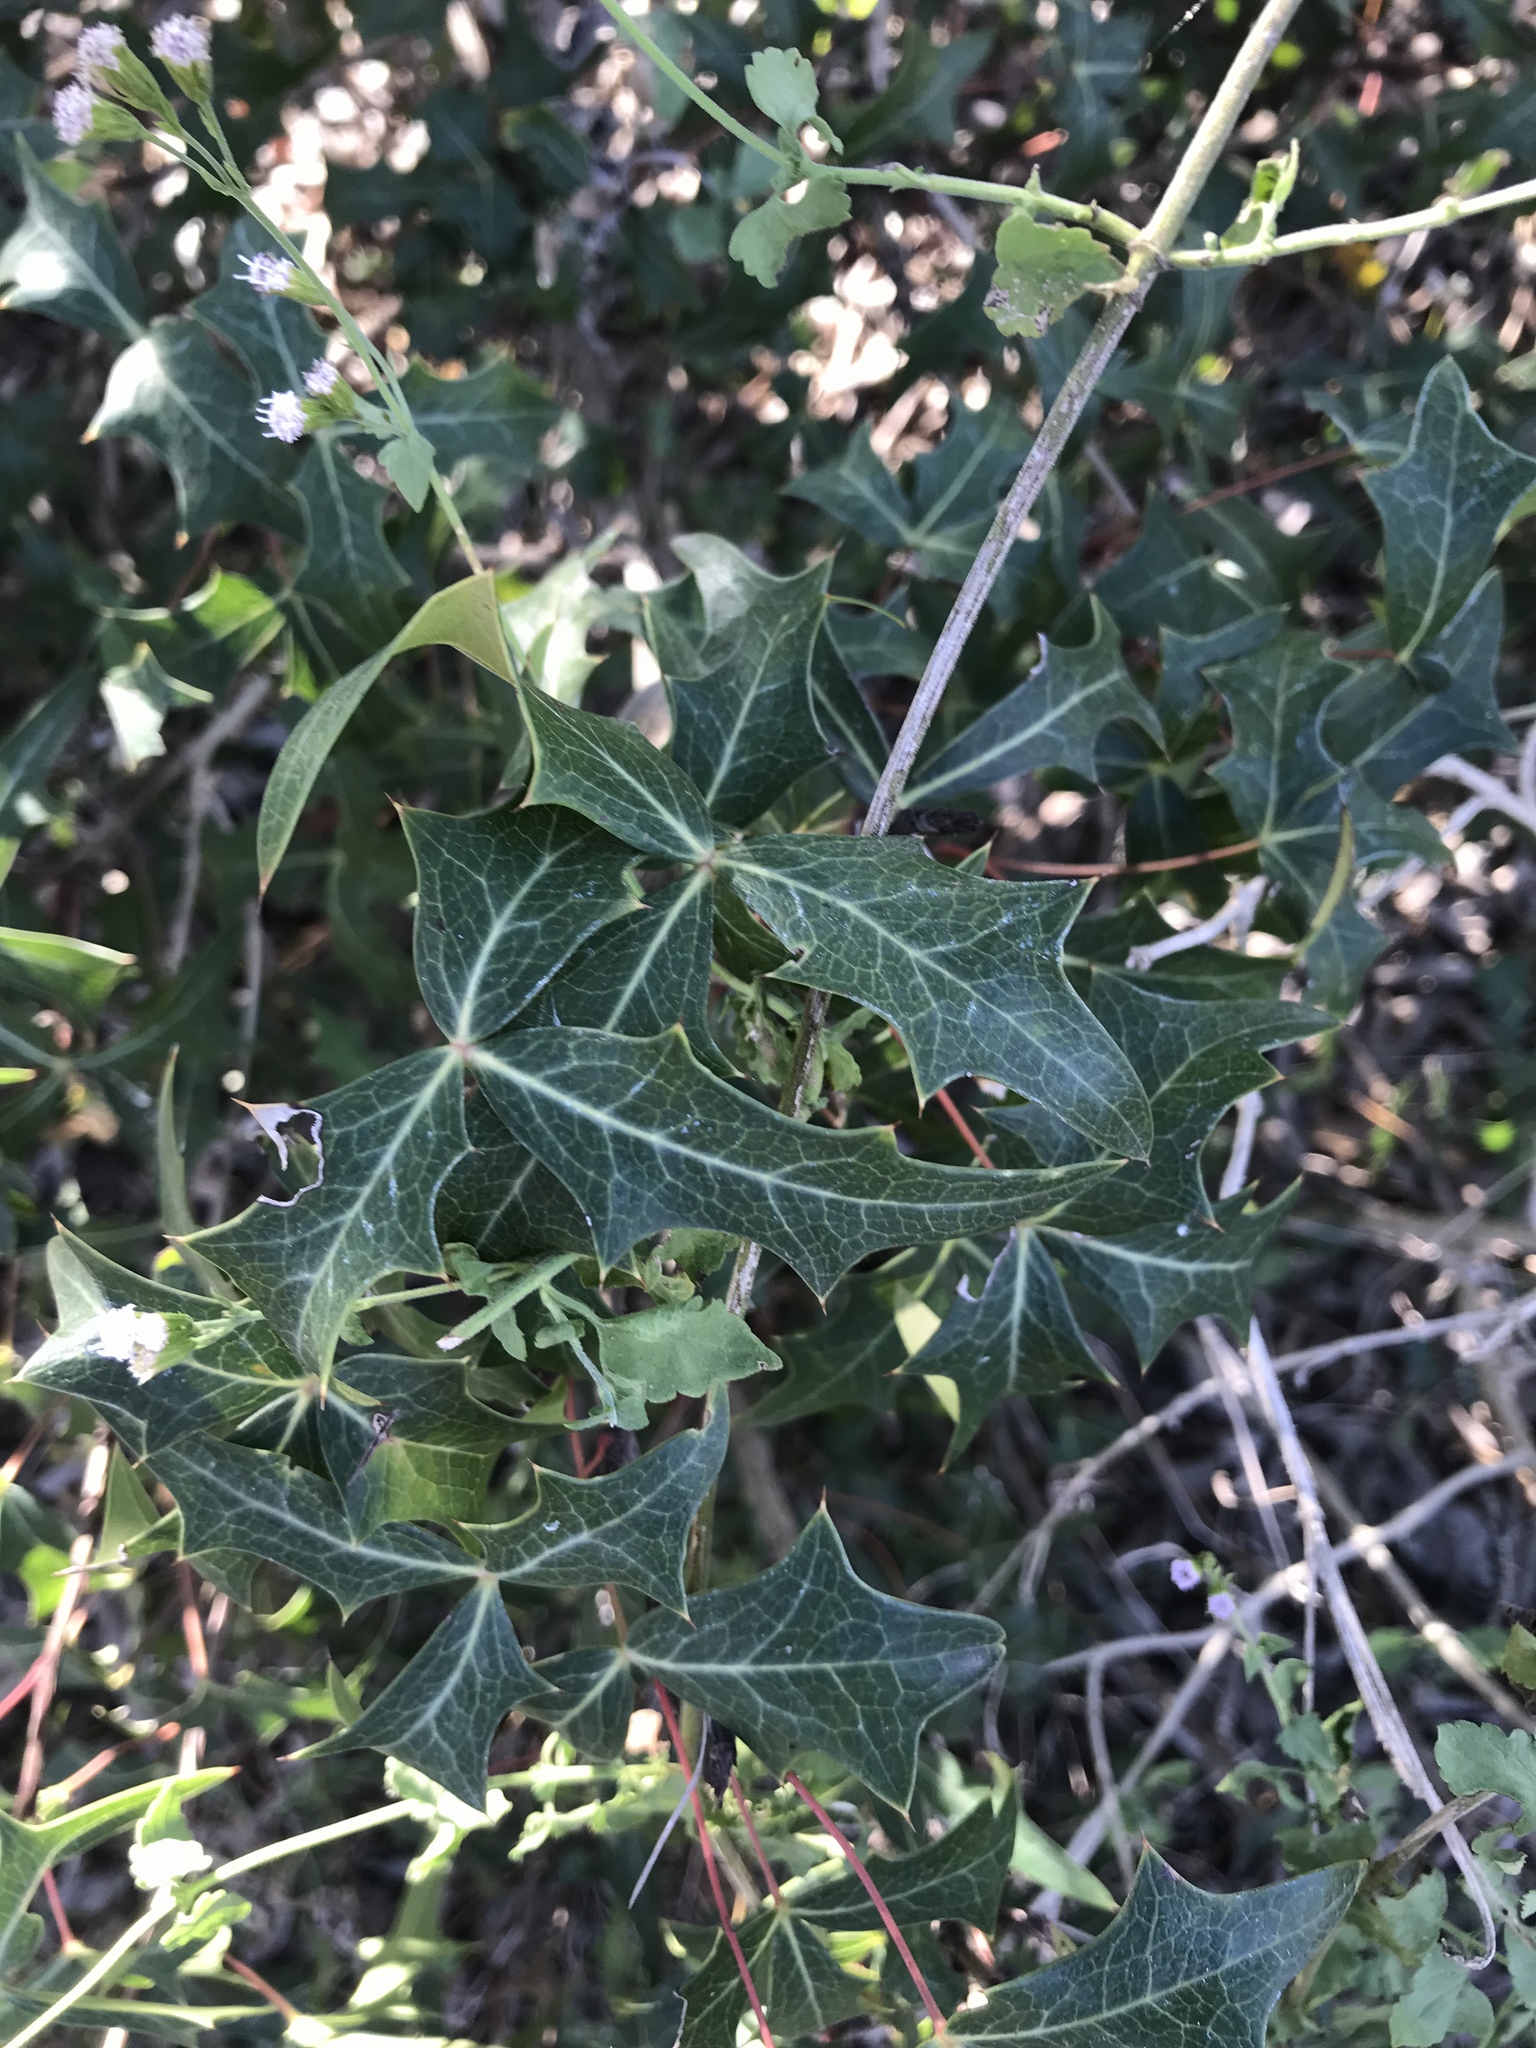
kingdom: Plantae
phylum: Tracheophyta
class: Magnoliopsida
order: Ranunculales
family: Berberidaceae
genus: Alloberberis
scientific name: Alloberberis trifoliolata
